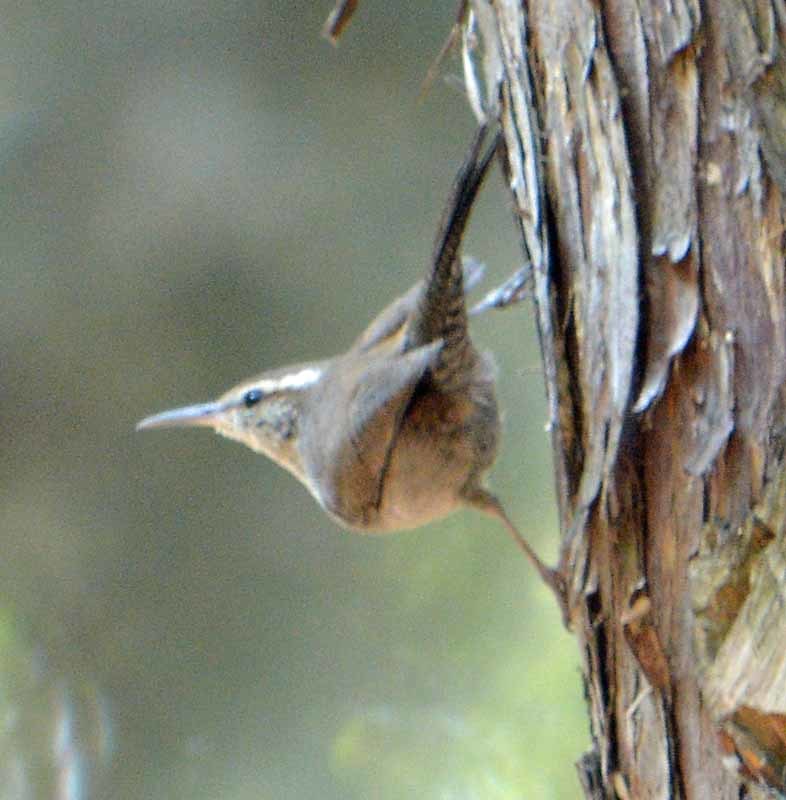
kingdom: Animalia
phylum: Chordata
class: Aves
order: Passeriformes
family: Troglodytidae
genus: Thryomanes
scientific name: Thryomanes bewickii
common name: Bewick's wren
